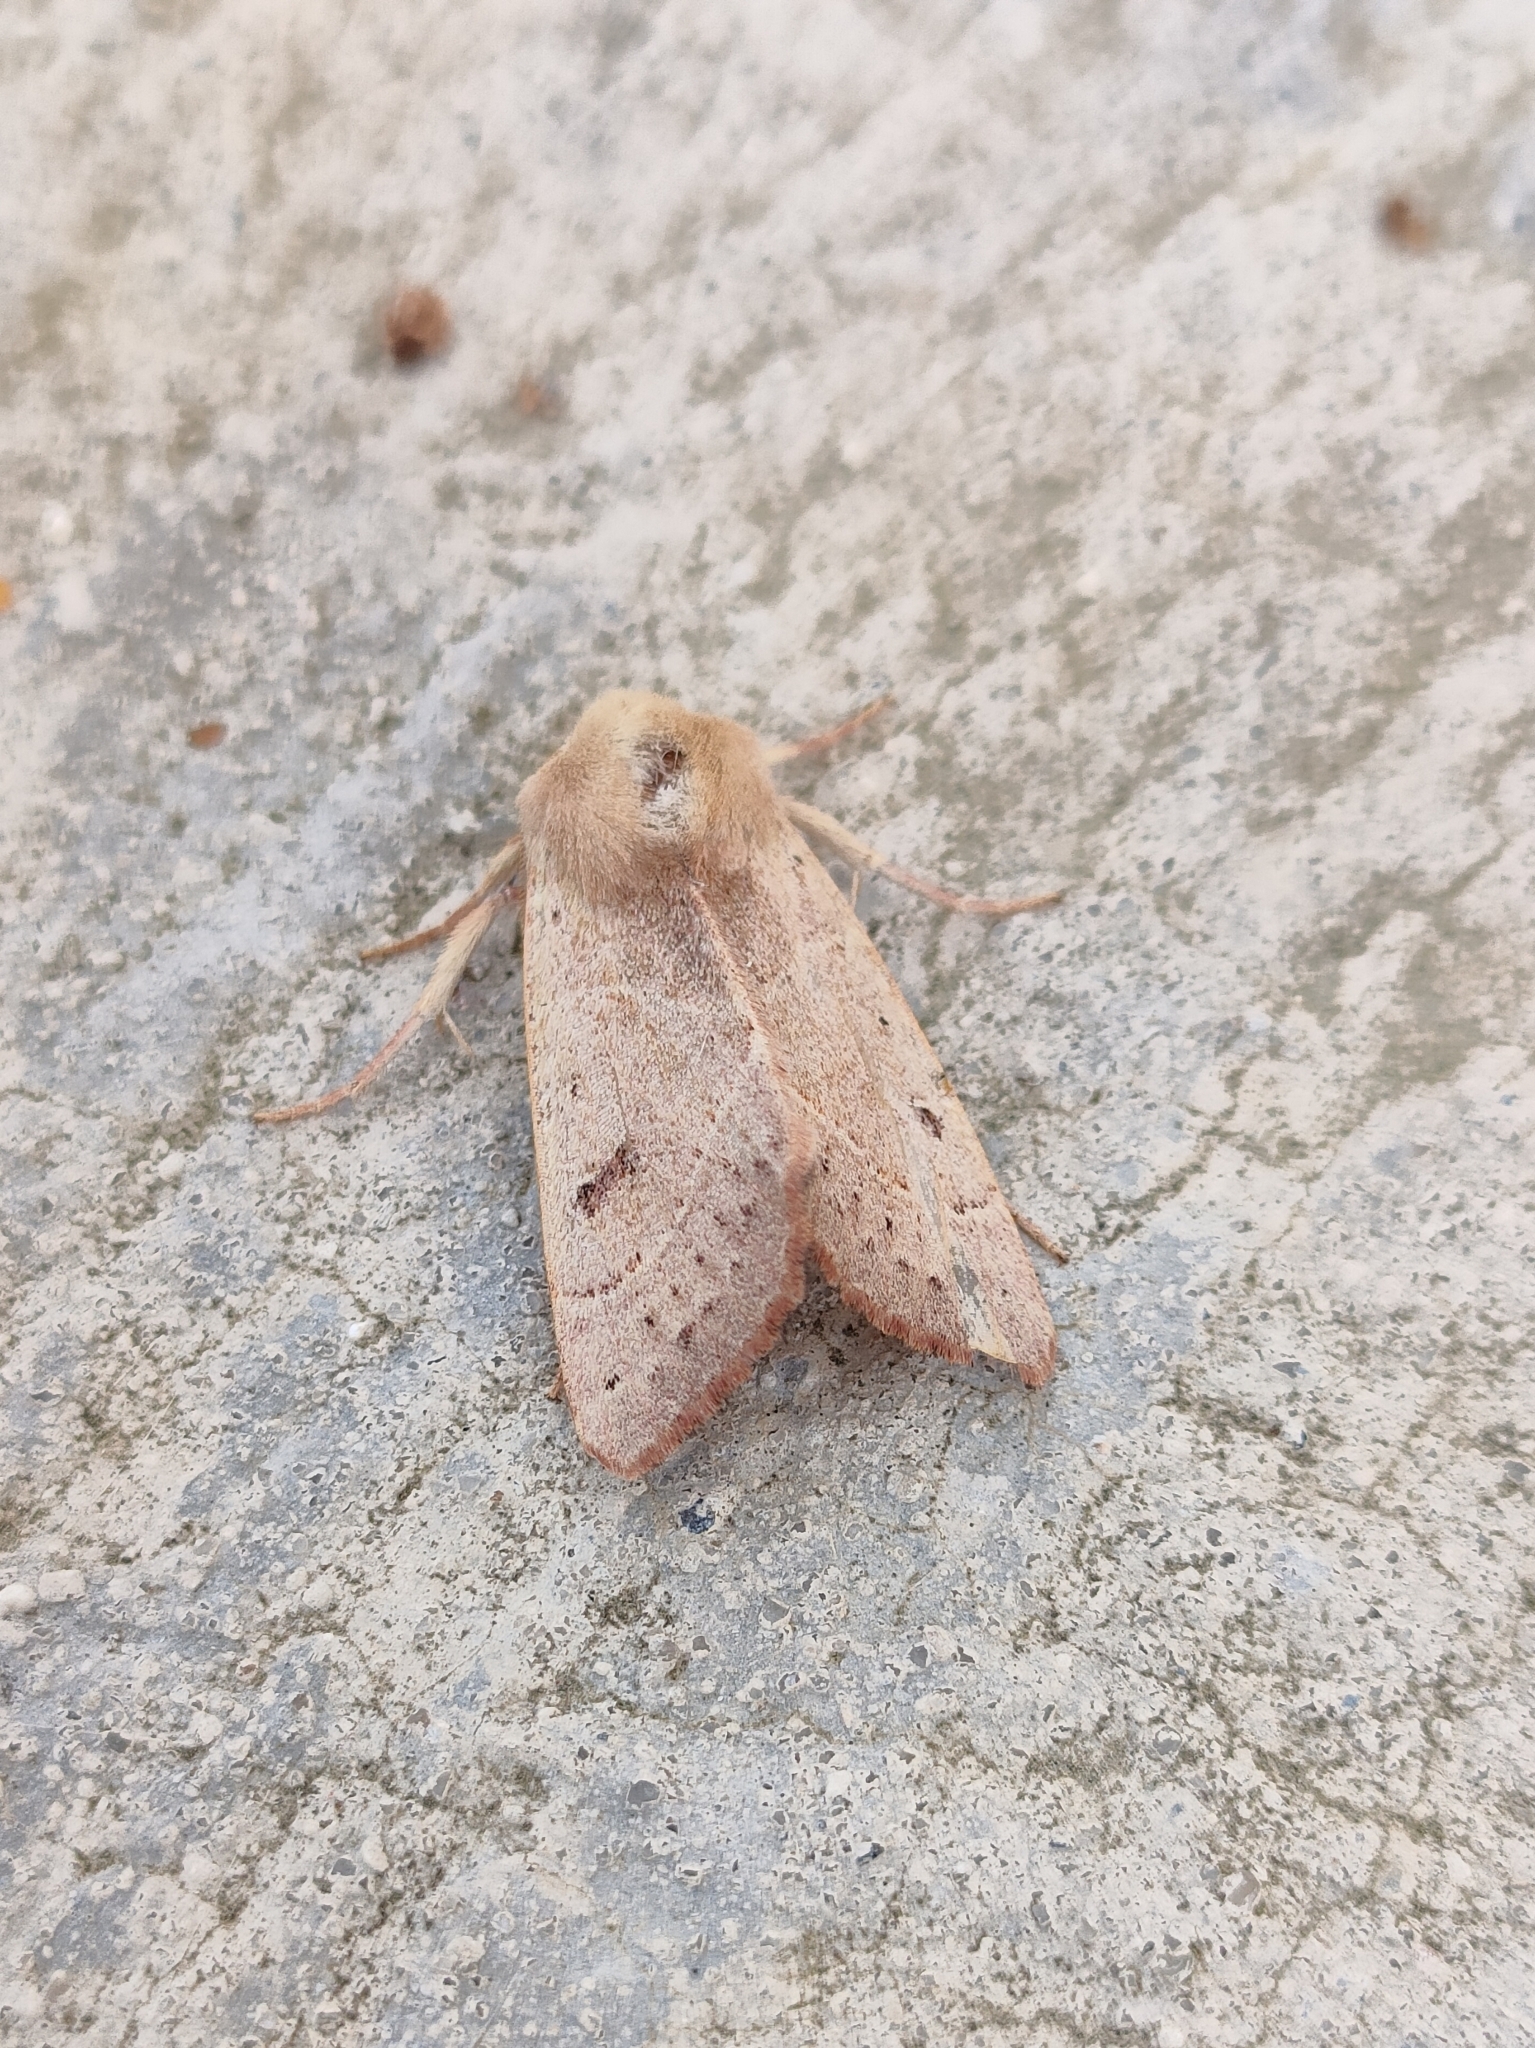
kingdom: Animalia
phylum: Arthropoda
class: Insecta
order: Lepidoptera
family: Noctuidae
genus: Pseudenargia
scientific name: Pseudenargia ulicis
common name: Berber
